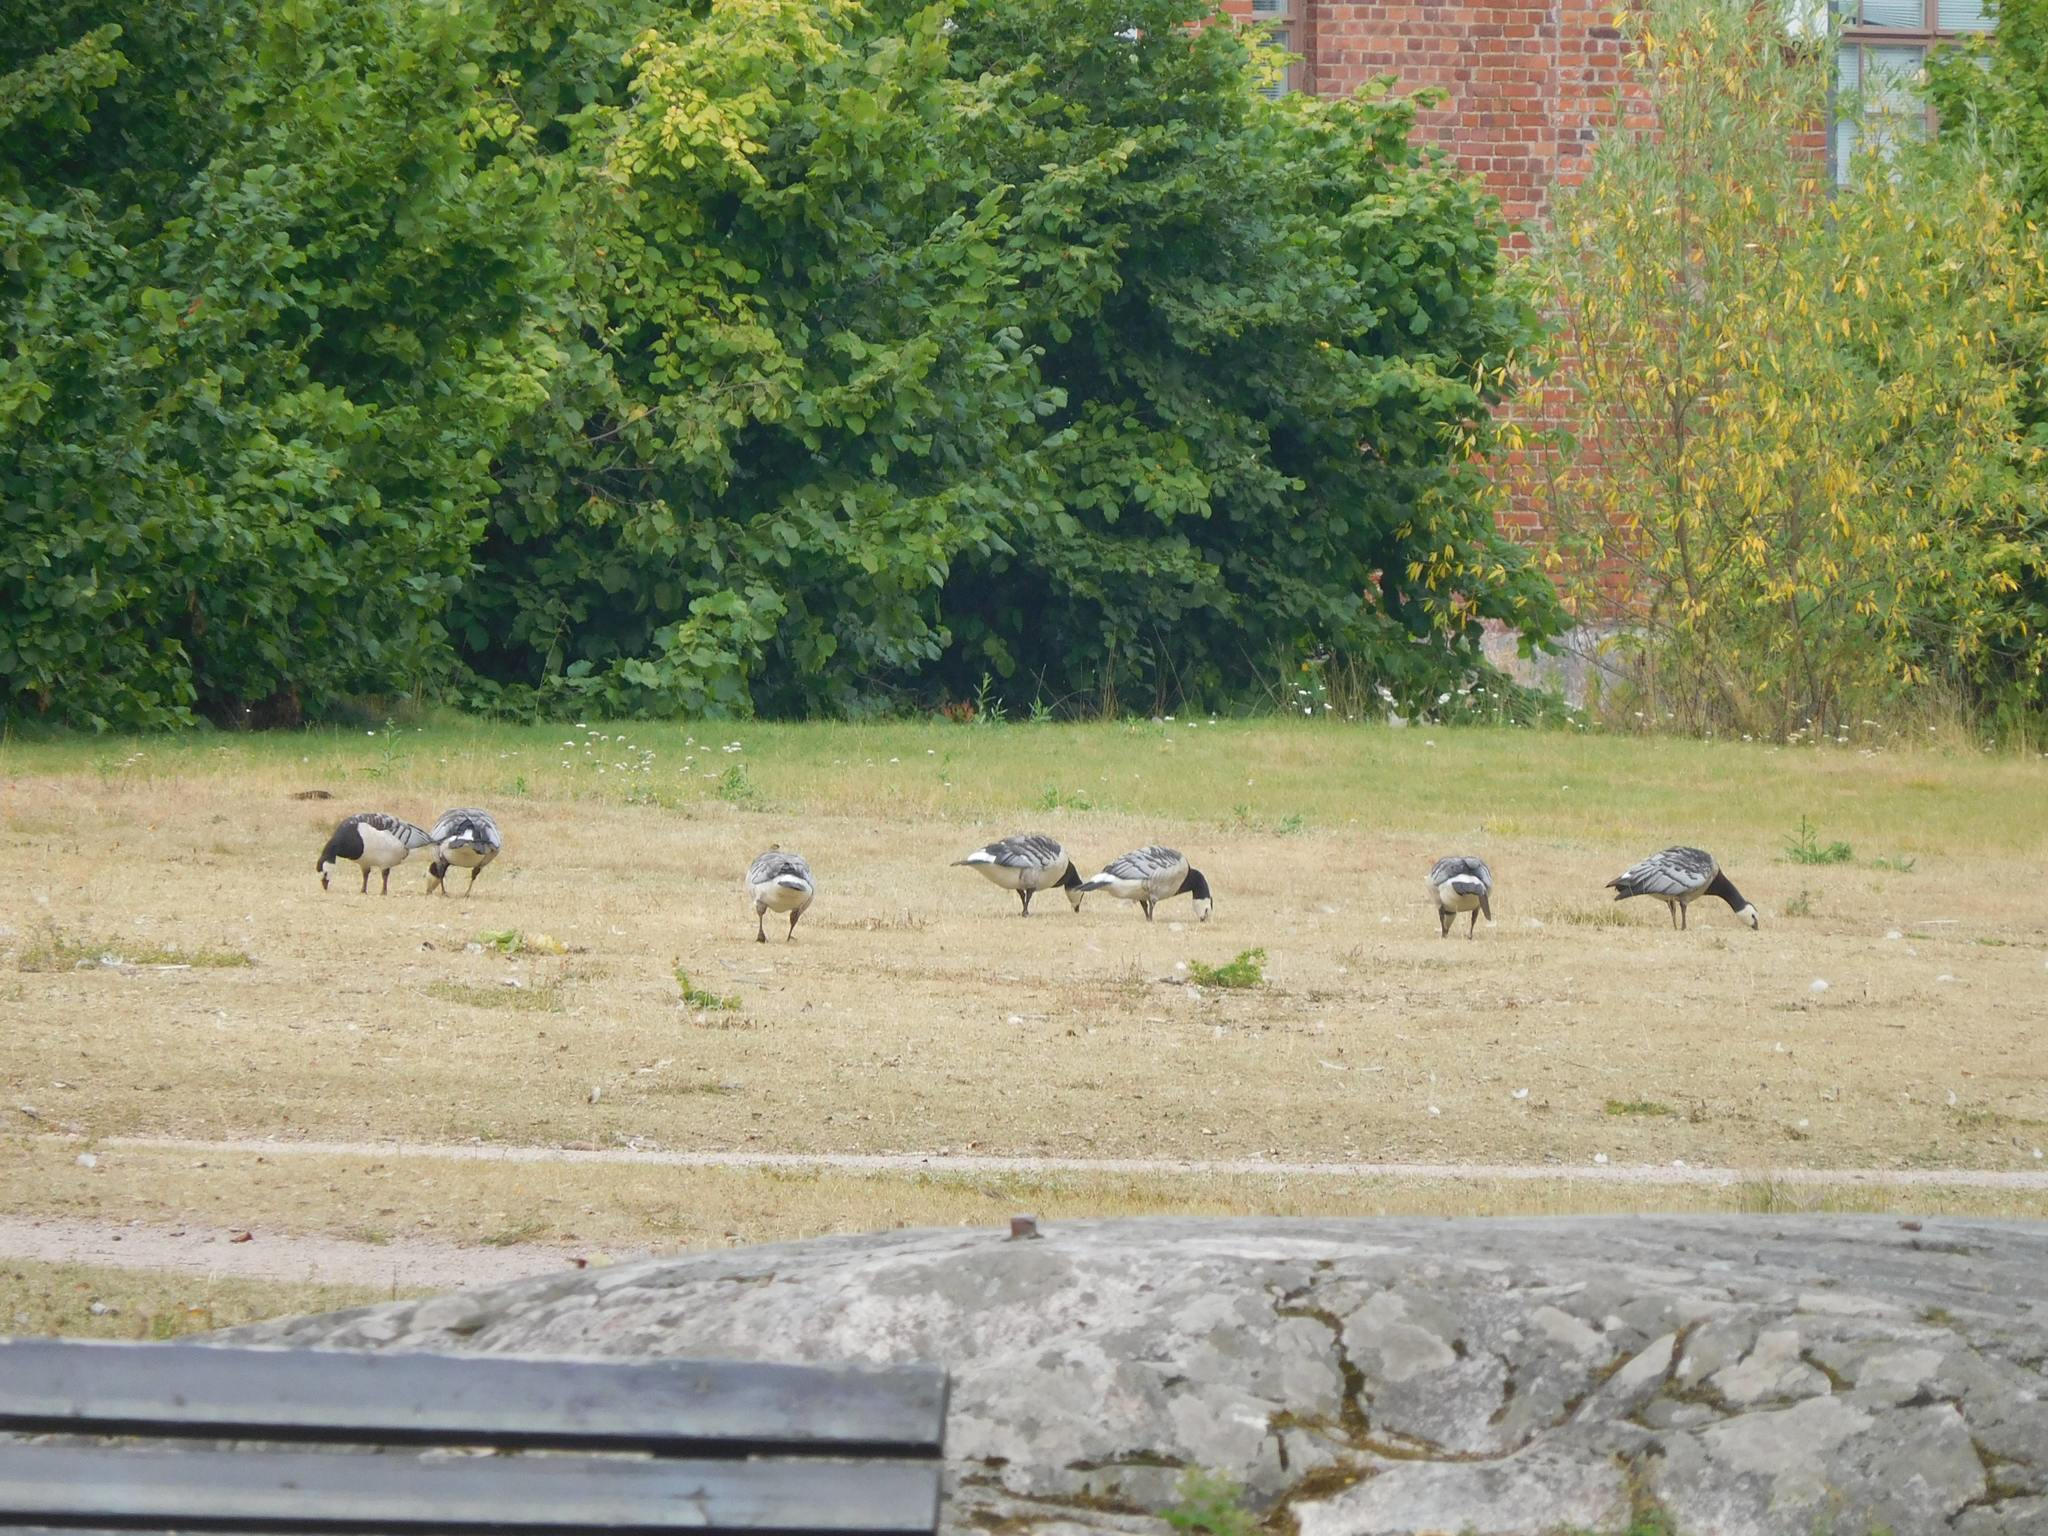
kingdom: Animalia
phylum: Chordata
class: Aves
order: Anseriformes
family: Anatidae
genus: Branta
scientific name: Branta leucopsis
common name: Barnacle goose
